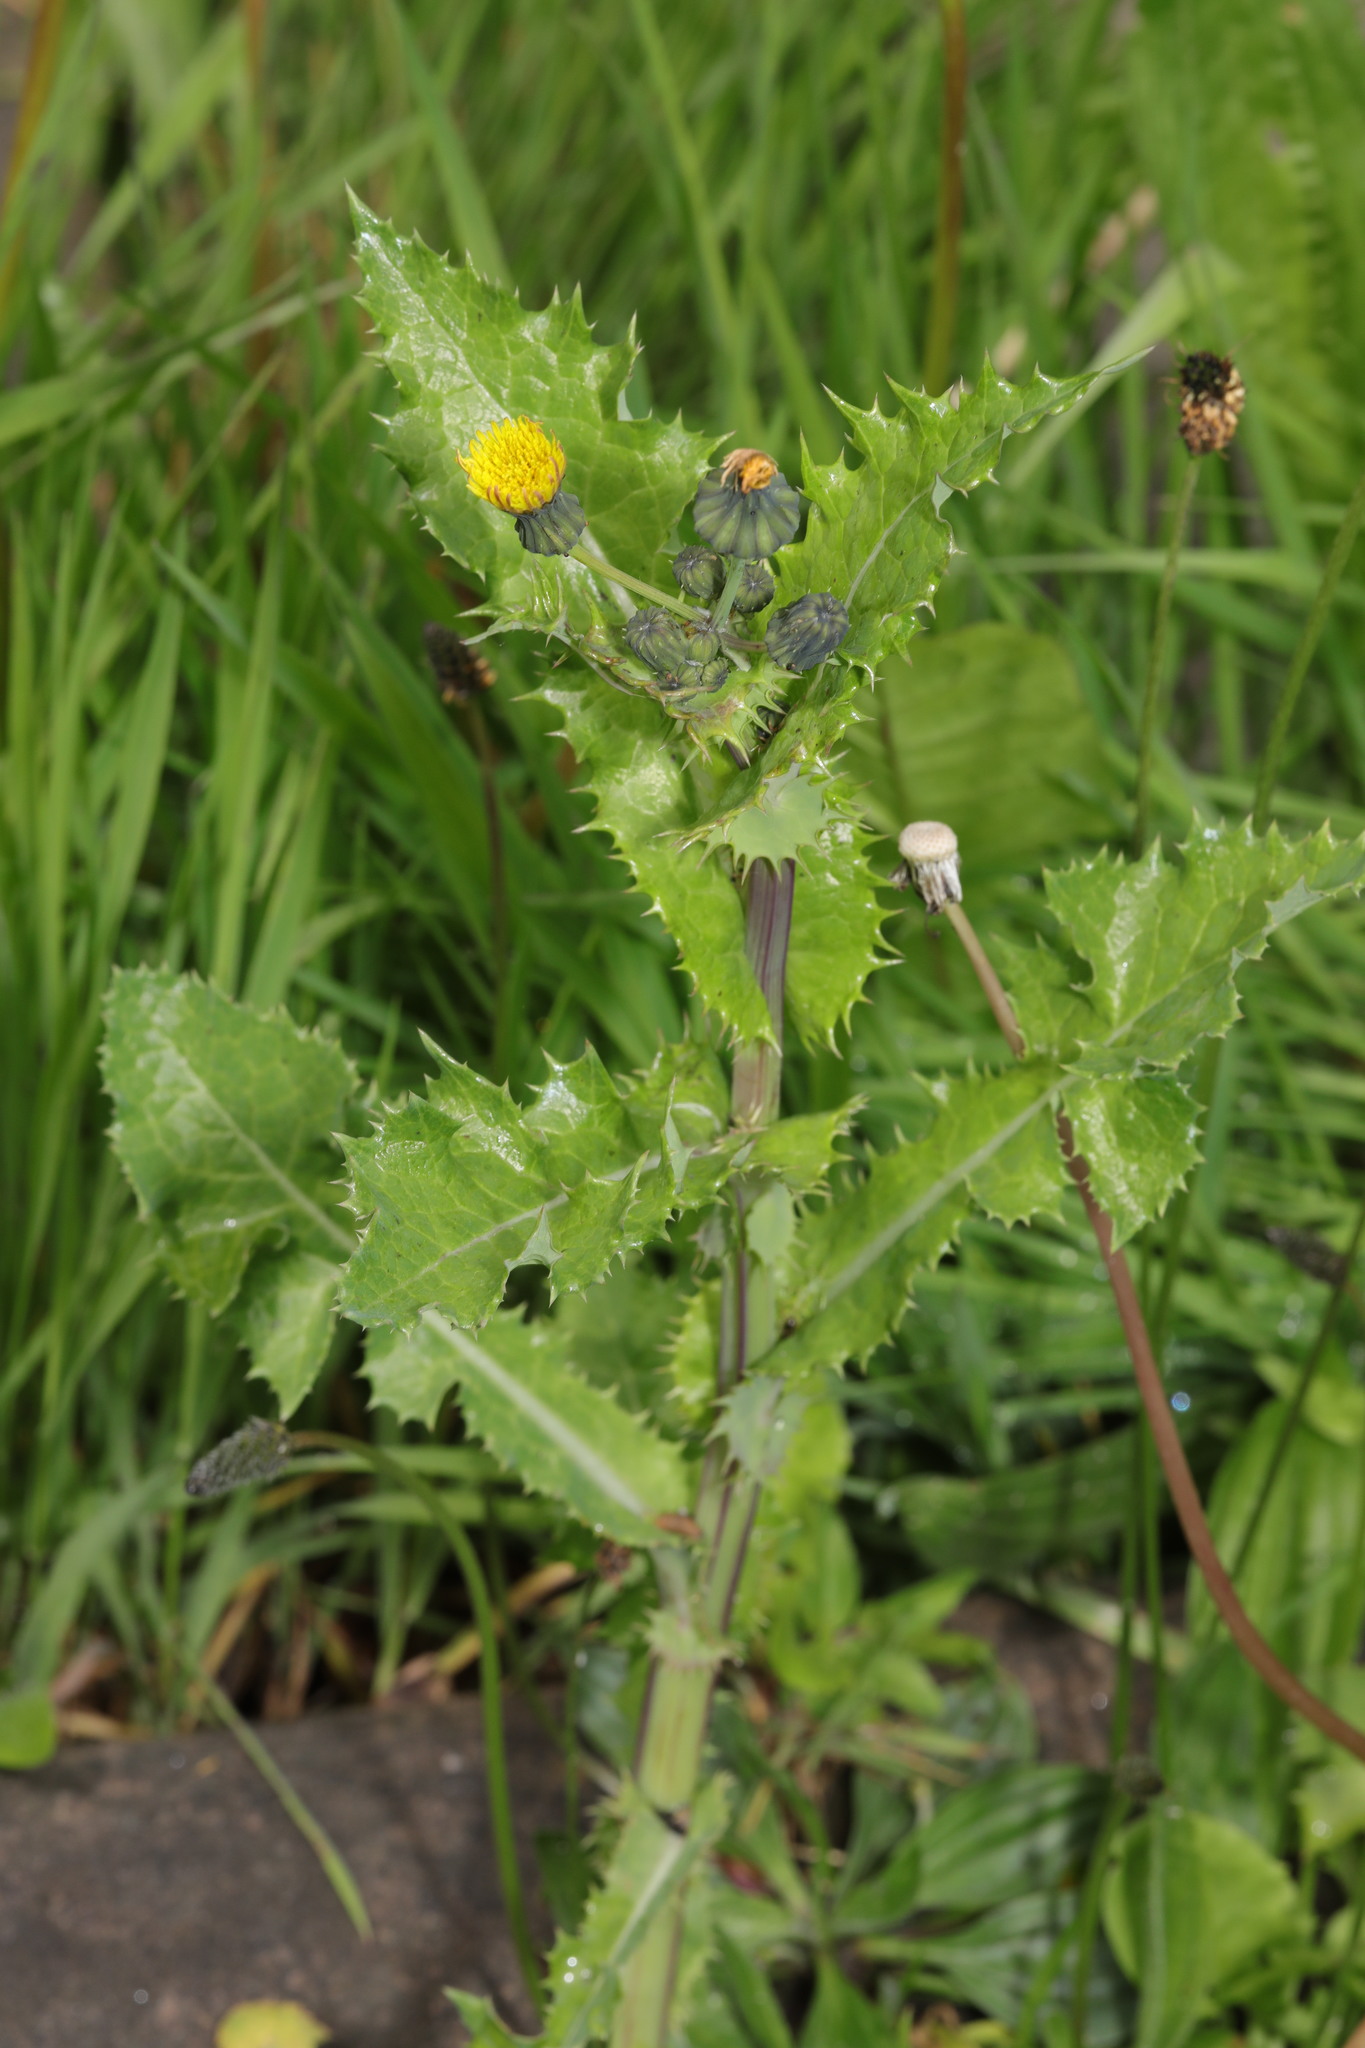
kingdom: Plantae
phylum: Tracheophyta
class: Magnoliopsida
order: Asterales
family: Asteraceae
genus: Sonchus
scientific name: Sonchus asper
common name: Prickly sow-thistle
